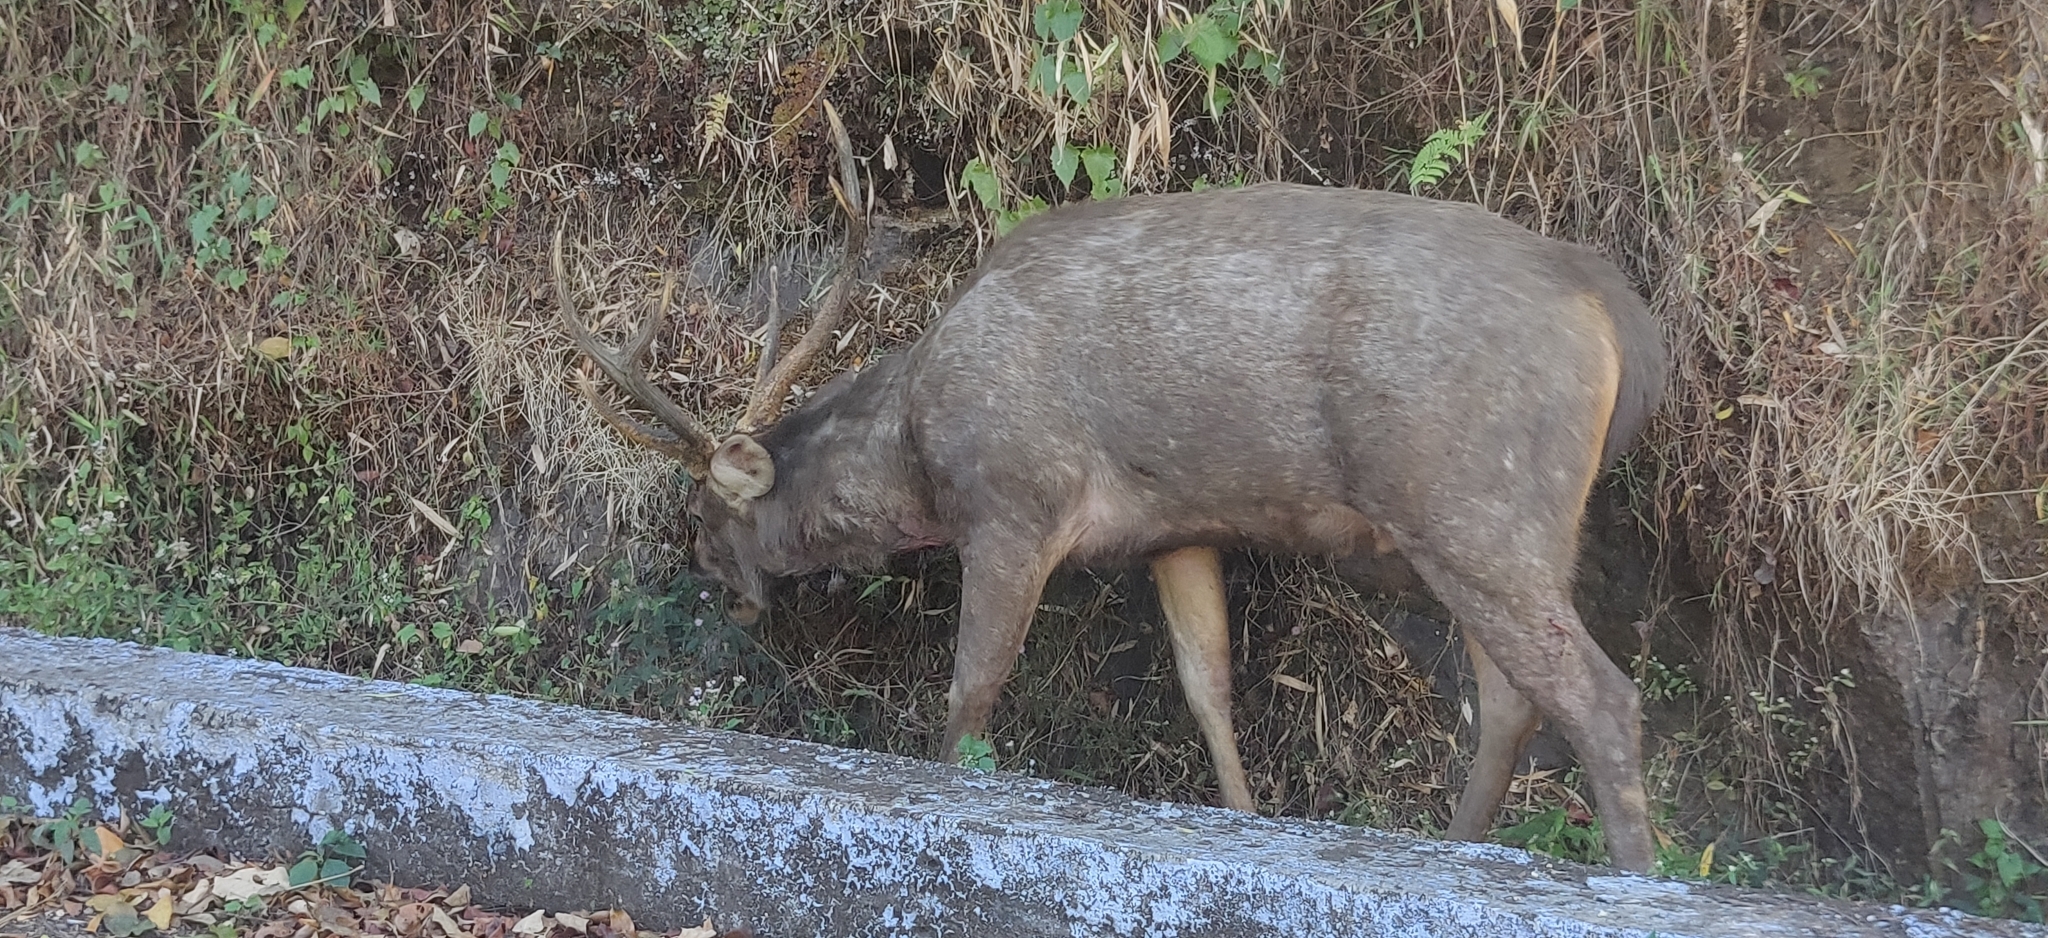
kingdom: Animalia
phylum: Chordata
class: Mammalia
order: Artiodactyla
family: Cervidae
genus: Rusa
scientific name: Rusa unicolor
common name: Sambar
